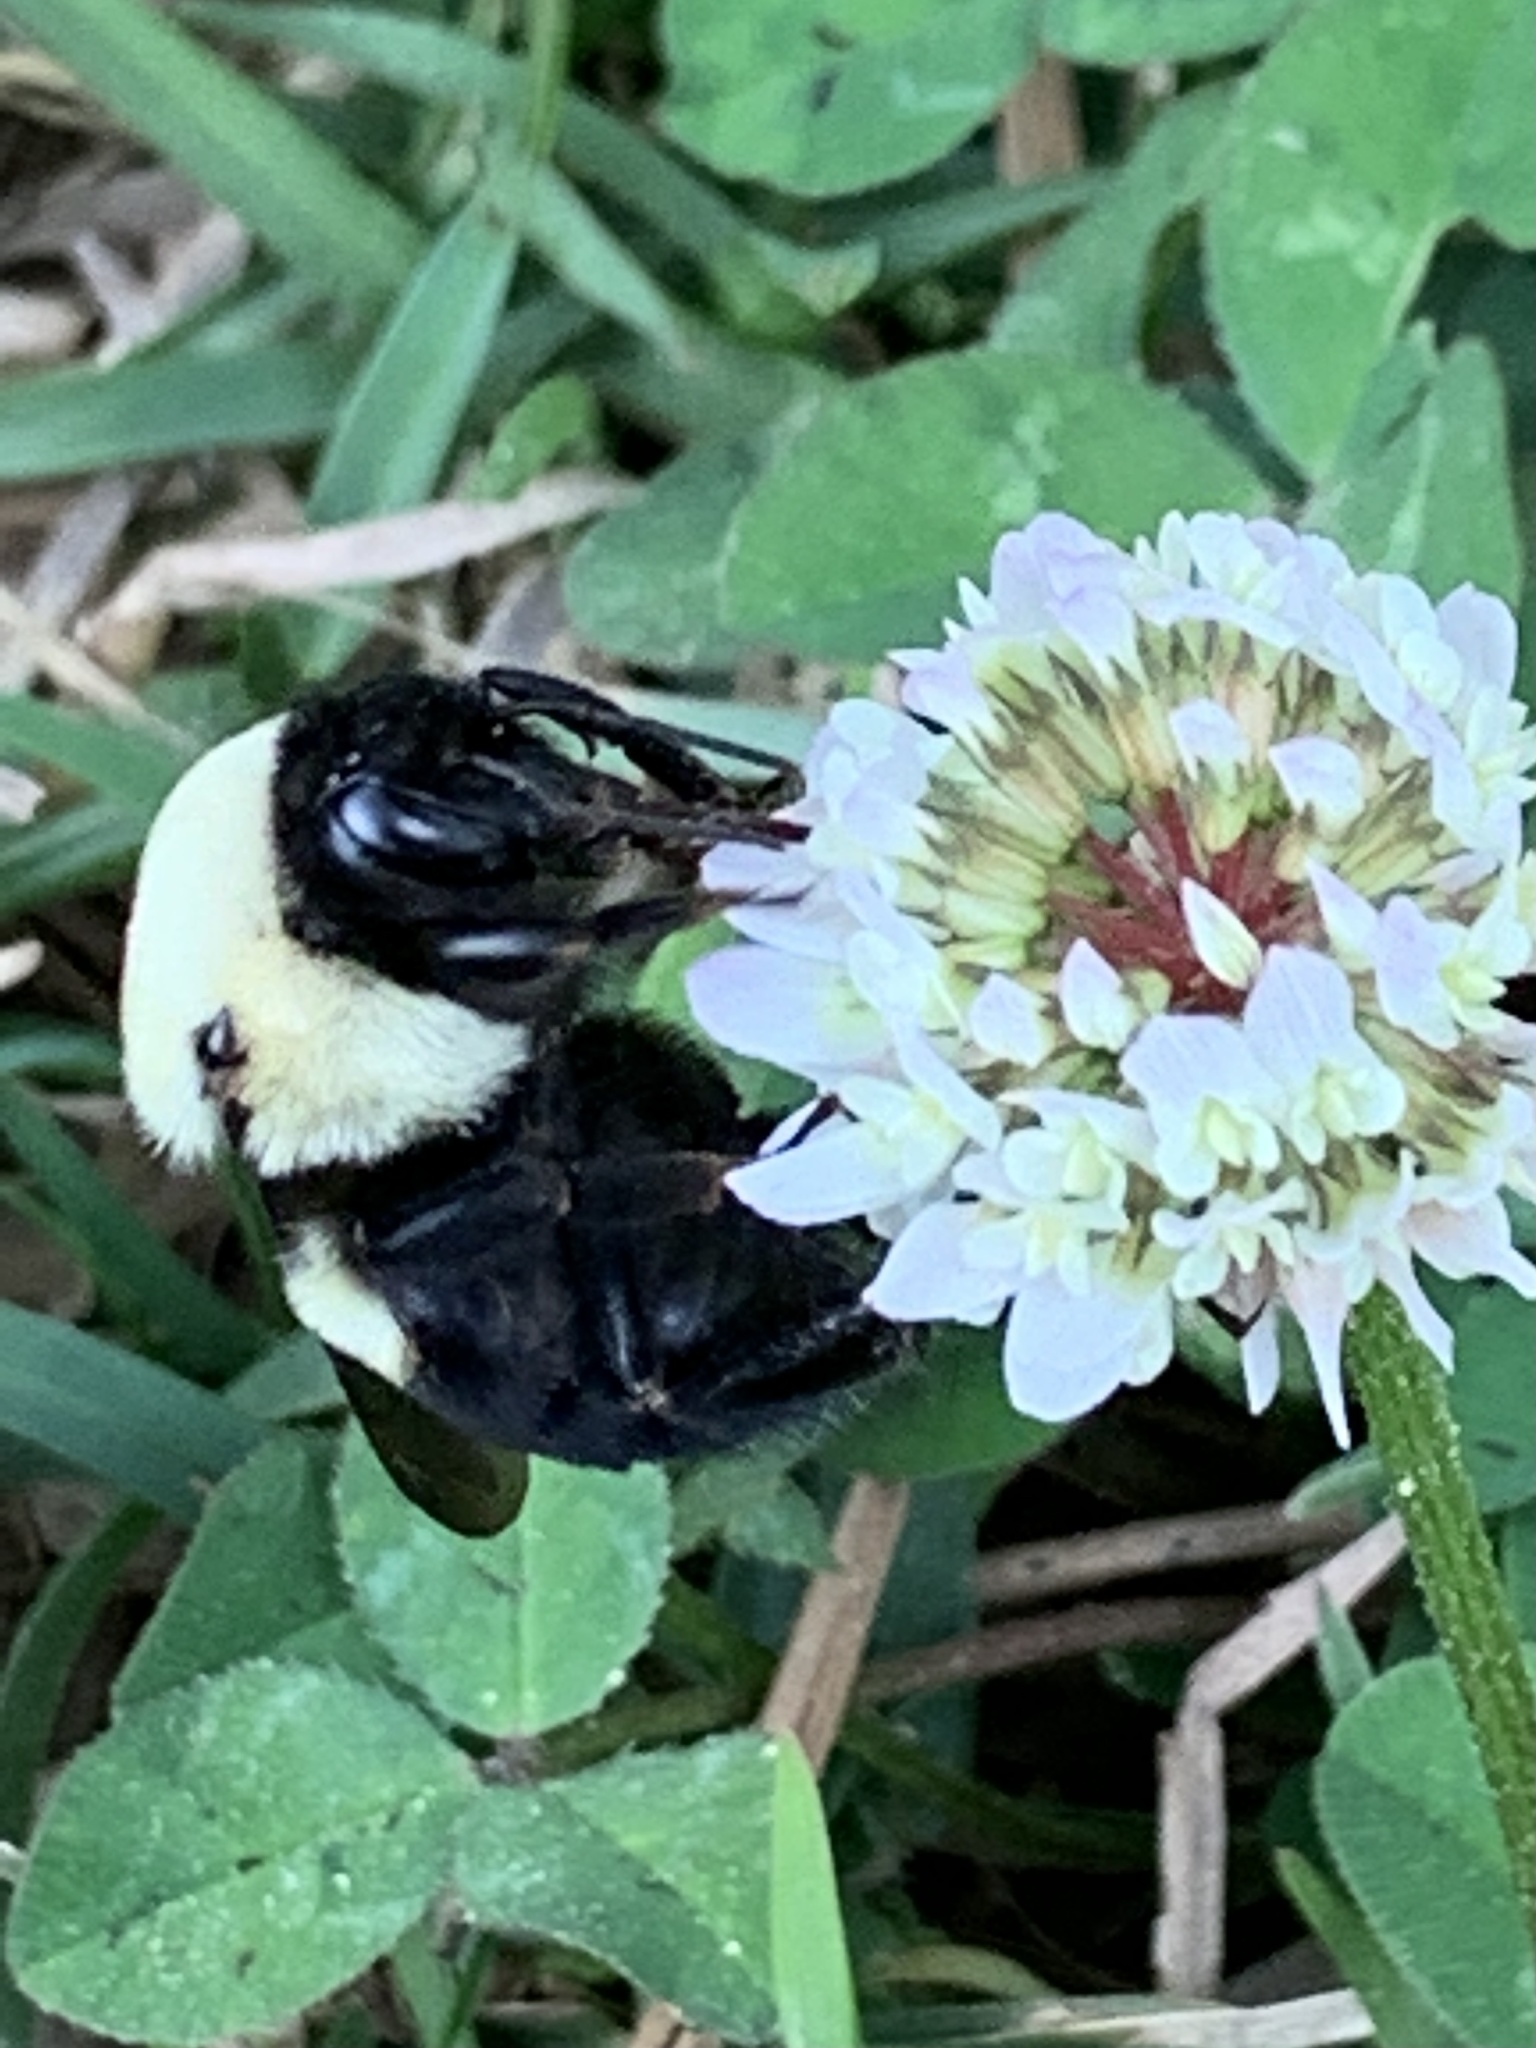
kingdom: Animalia
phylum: Arthropoda
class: Insecta
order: Hymenoptera
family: Apidae
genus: Bombus
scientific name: Bombus griseocollis
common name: Brown-belted bumble bee
